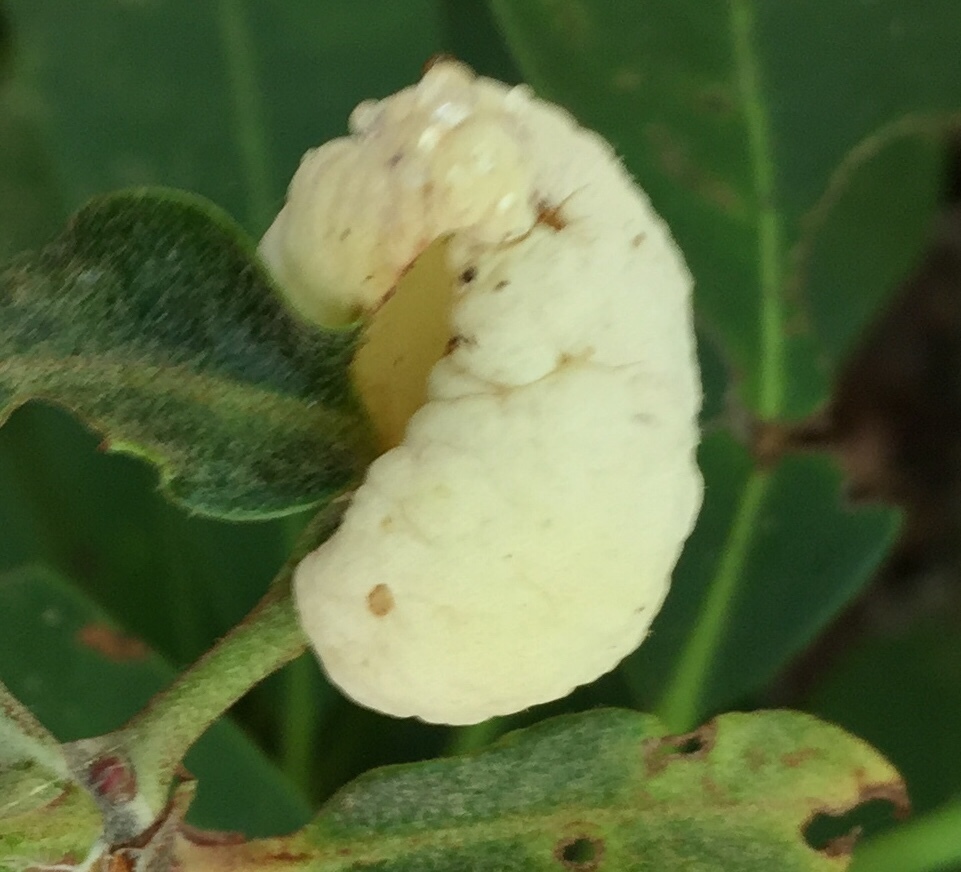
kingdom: Fungi
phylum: Basidiomycota
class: Exobasidiomycetes
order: Exobasidiales
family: Exobasidiaceae
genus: Exobasidium
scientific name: Exobasidium vaccinii
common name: Cowberry redleaf
